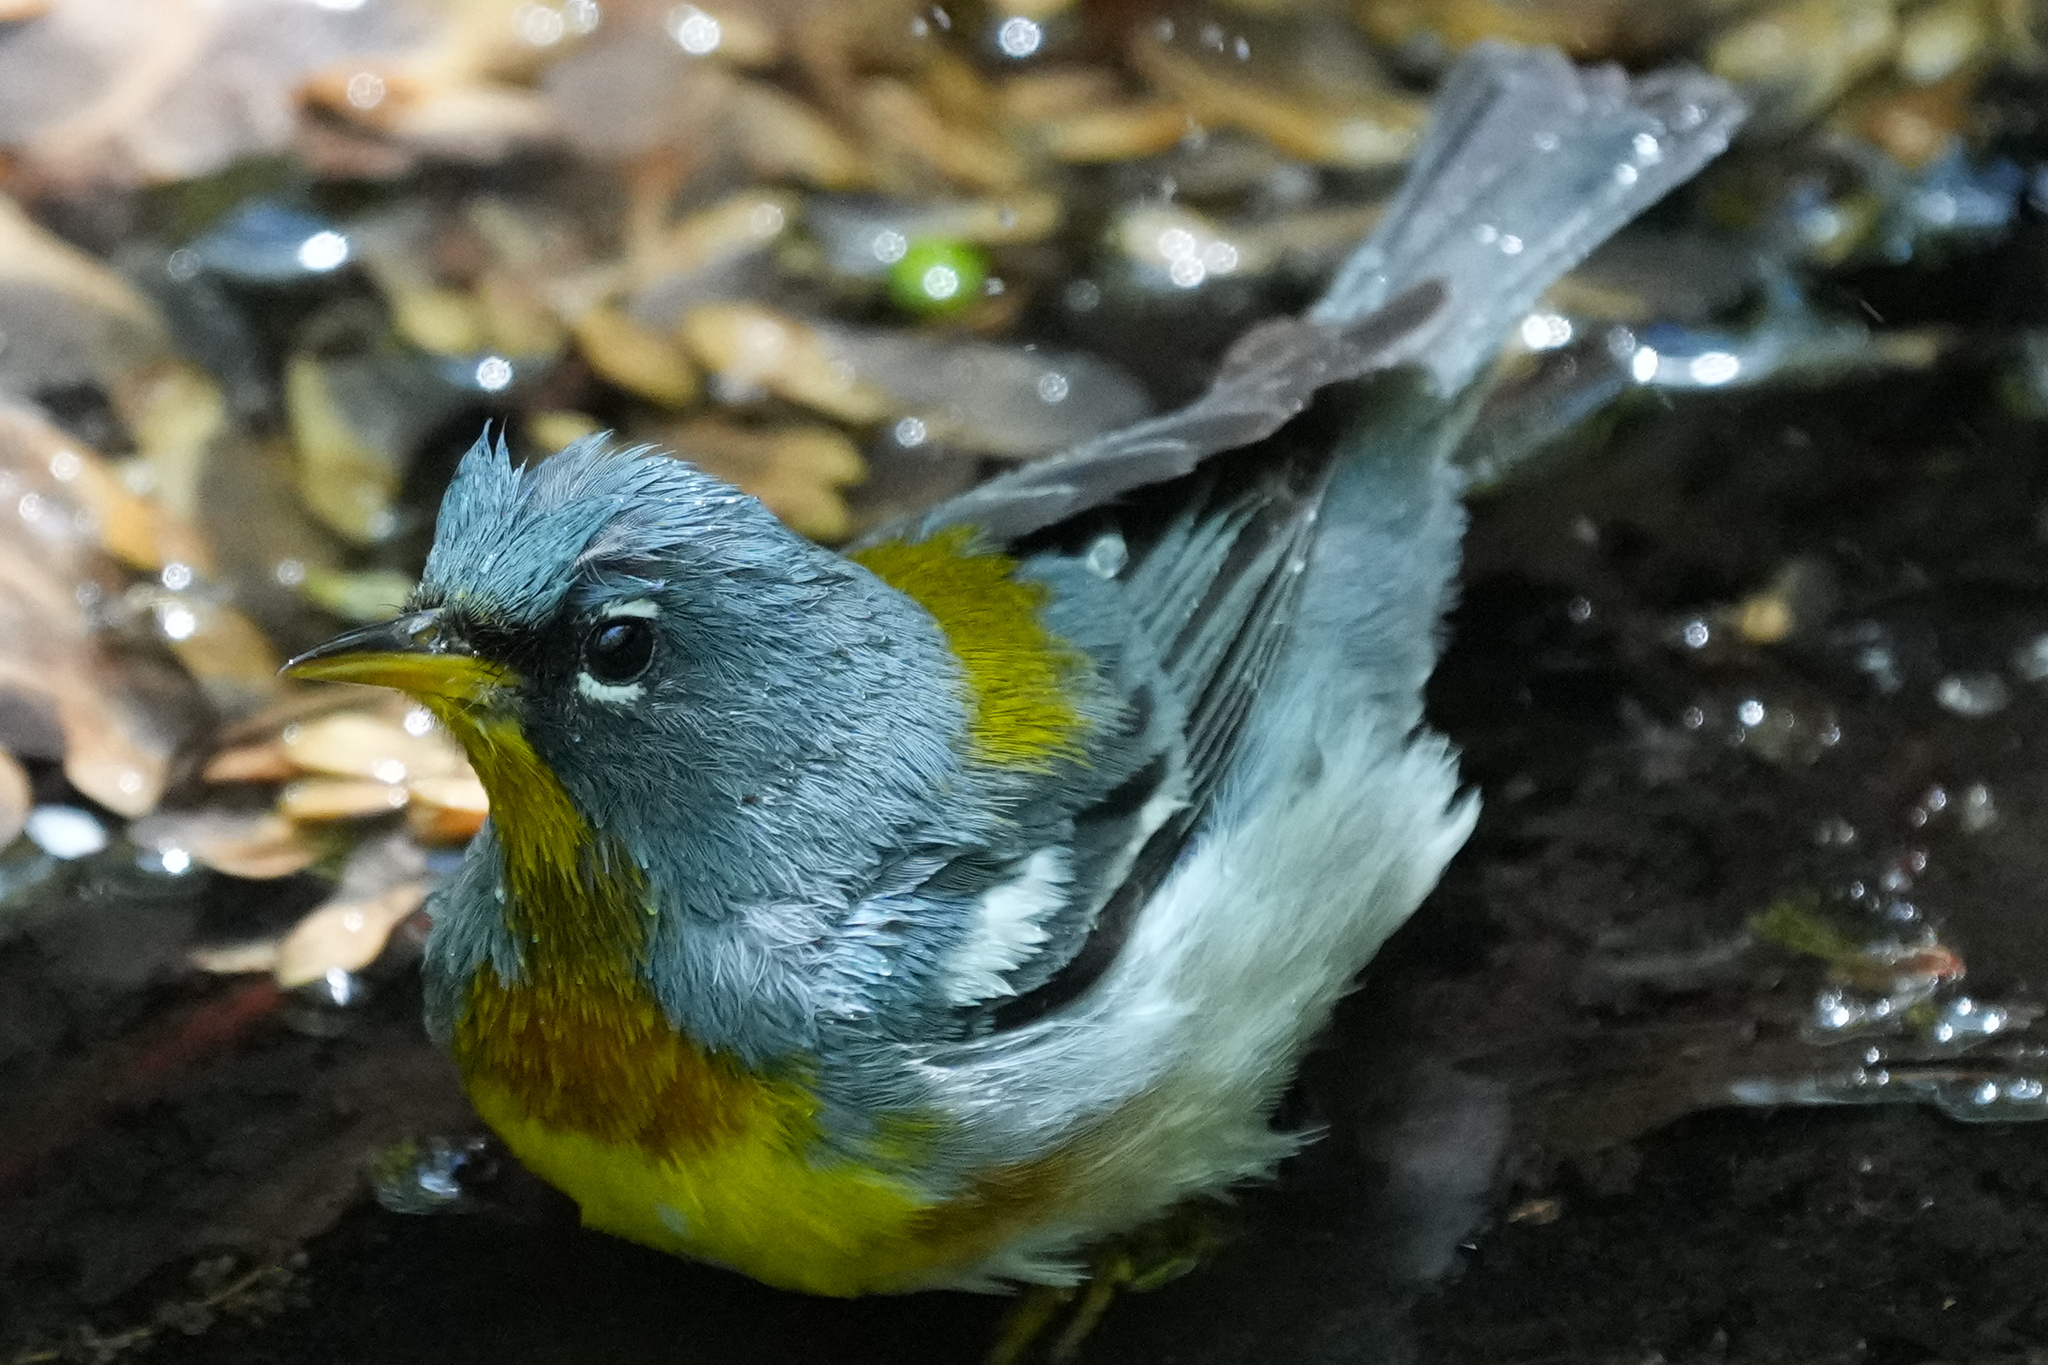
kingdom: Animalia
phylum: Chordata
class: Aves
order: Passeriformes
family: Parulidae
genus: Setophaga
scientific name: Setophaga americana
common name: Northern parula
